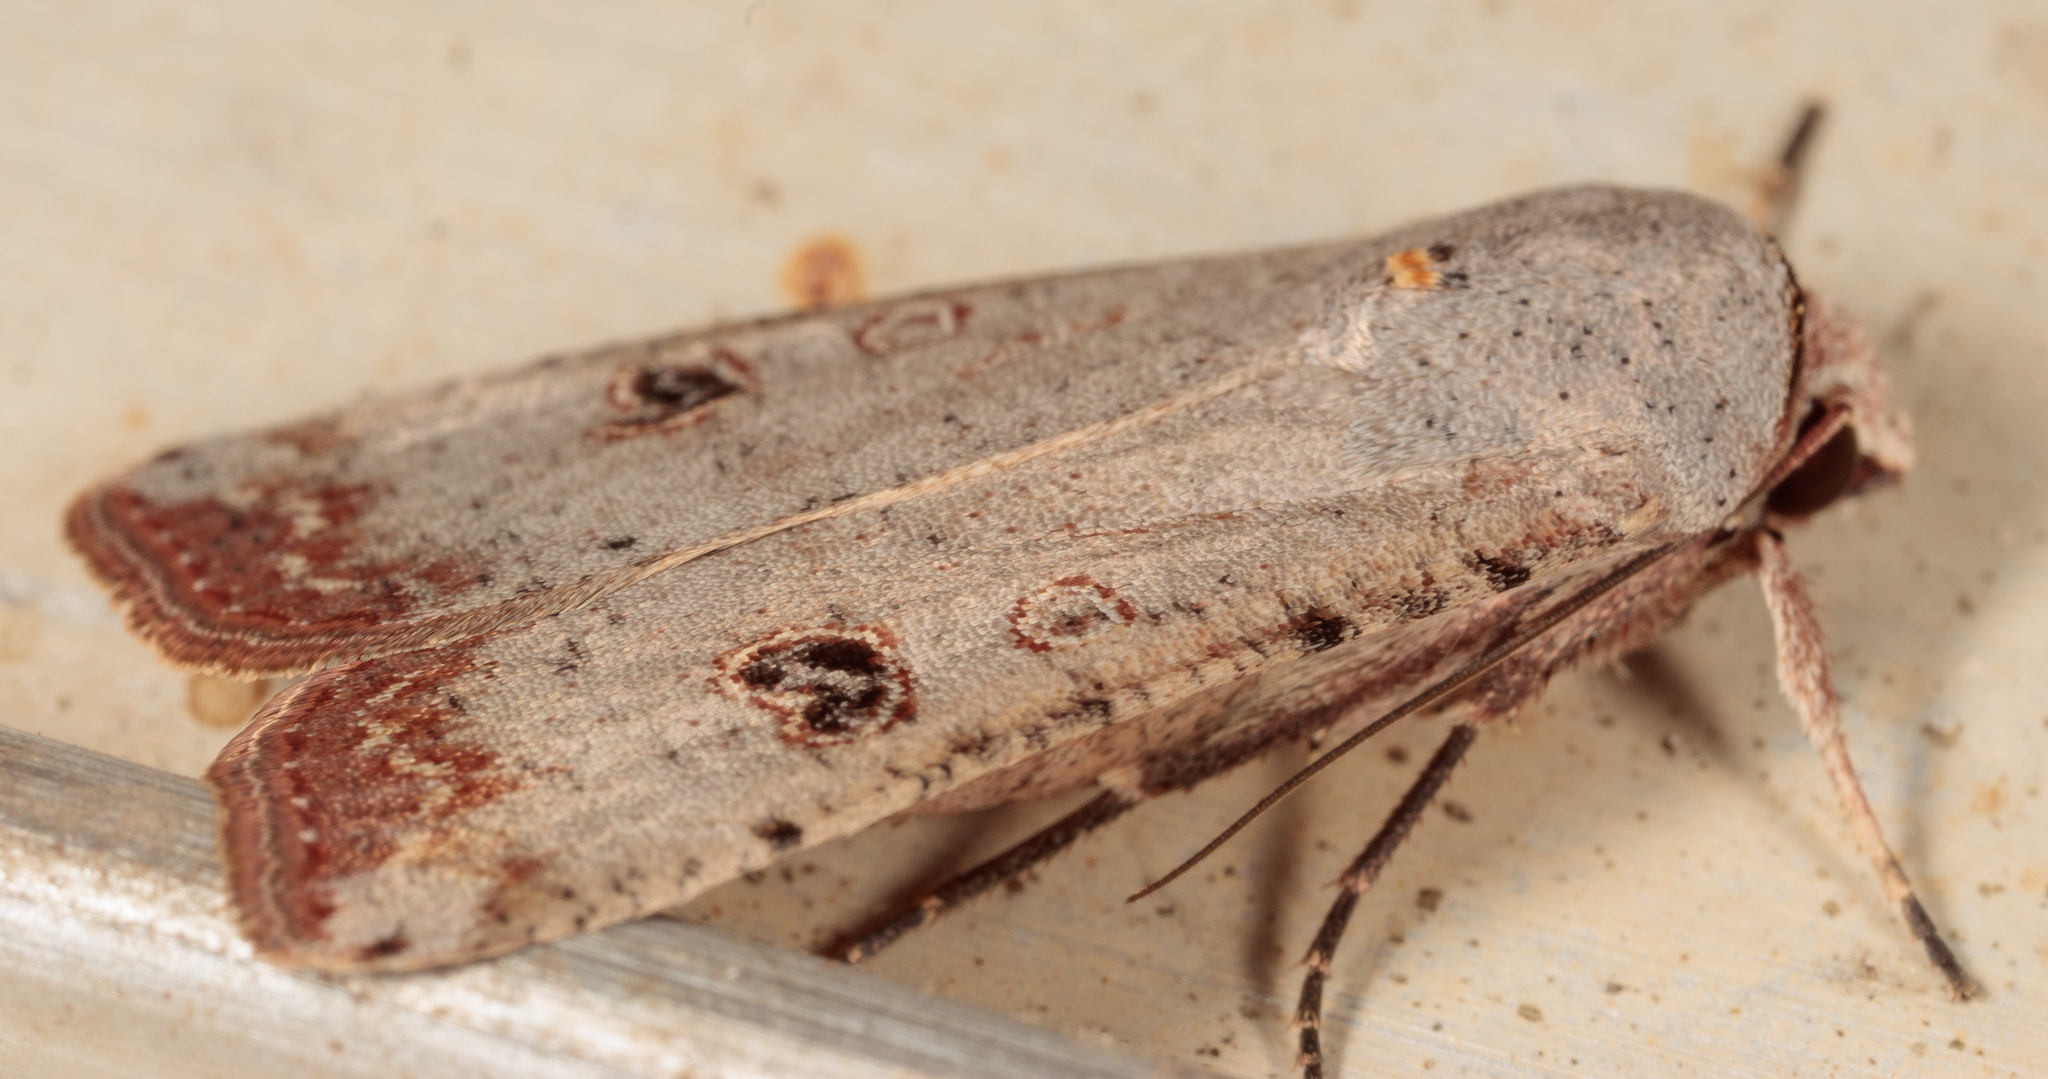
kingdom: Animalia
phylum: Arthropoda
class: Insecta
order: Lepidoptera
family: Noctuidae
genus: Anicla
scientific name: Anicla infecta
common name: Green cutworm
